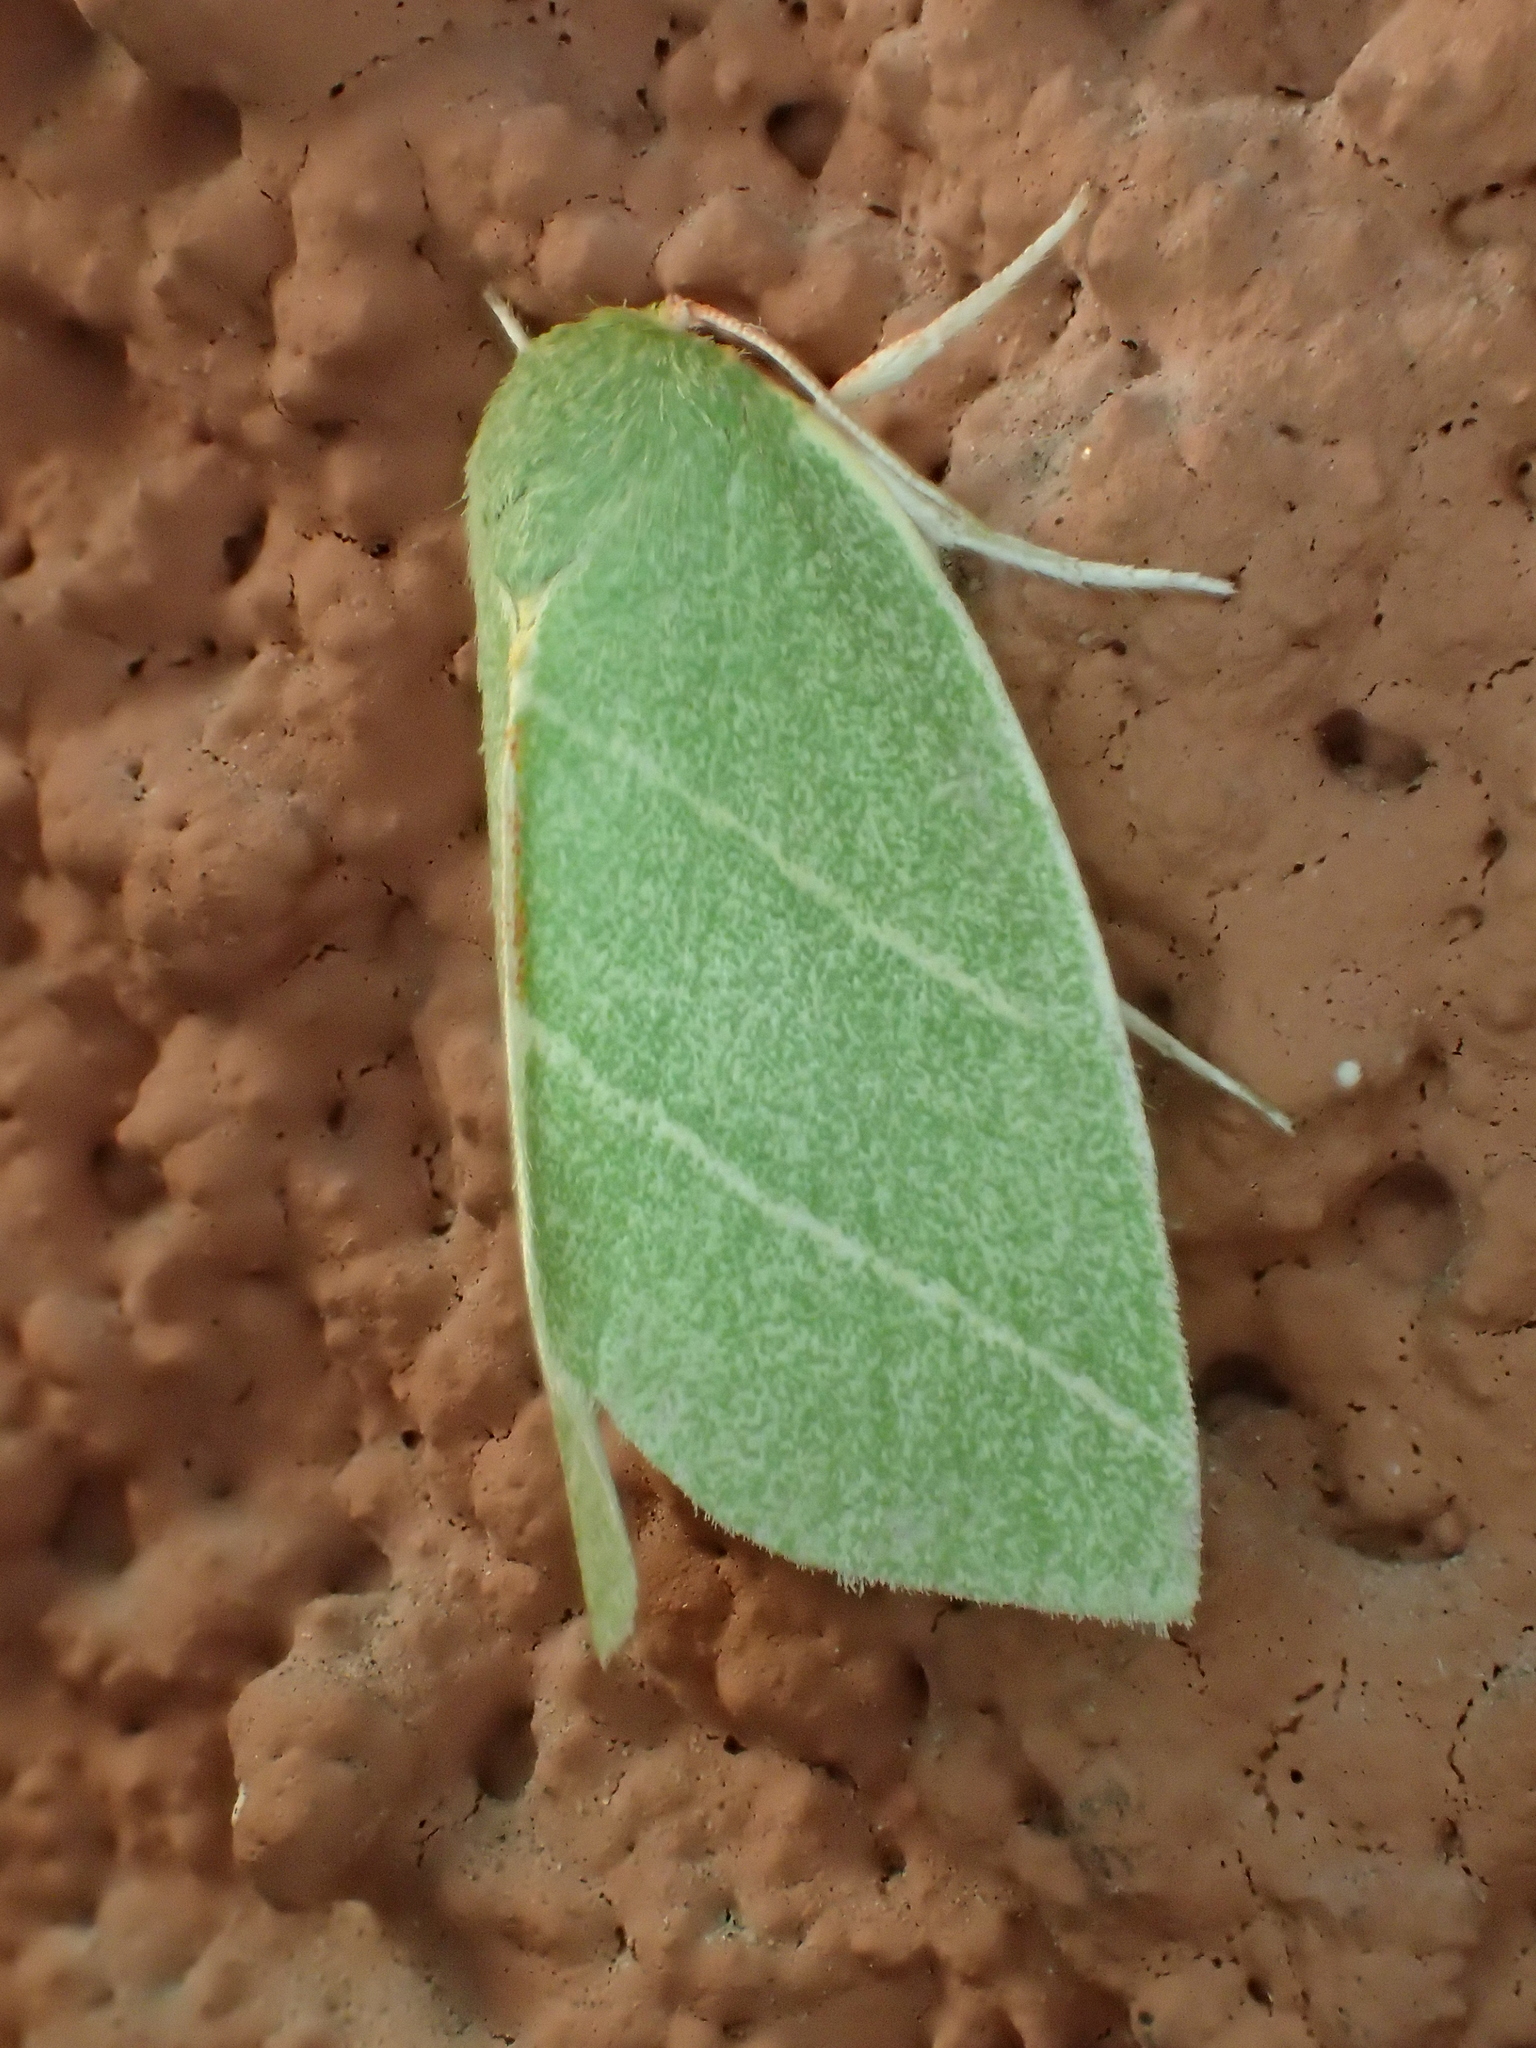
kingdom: Animalia
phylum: Arthropoda
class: Insecta
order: Lepidoptera
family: Nolidae
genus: Bena
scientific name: Bena bicolorana
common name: Scarce silver-lines
